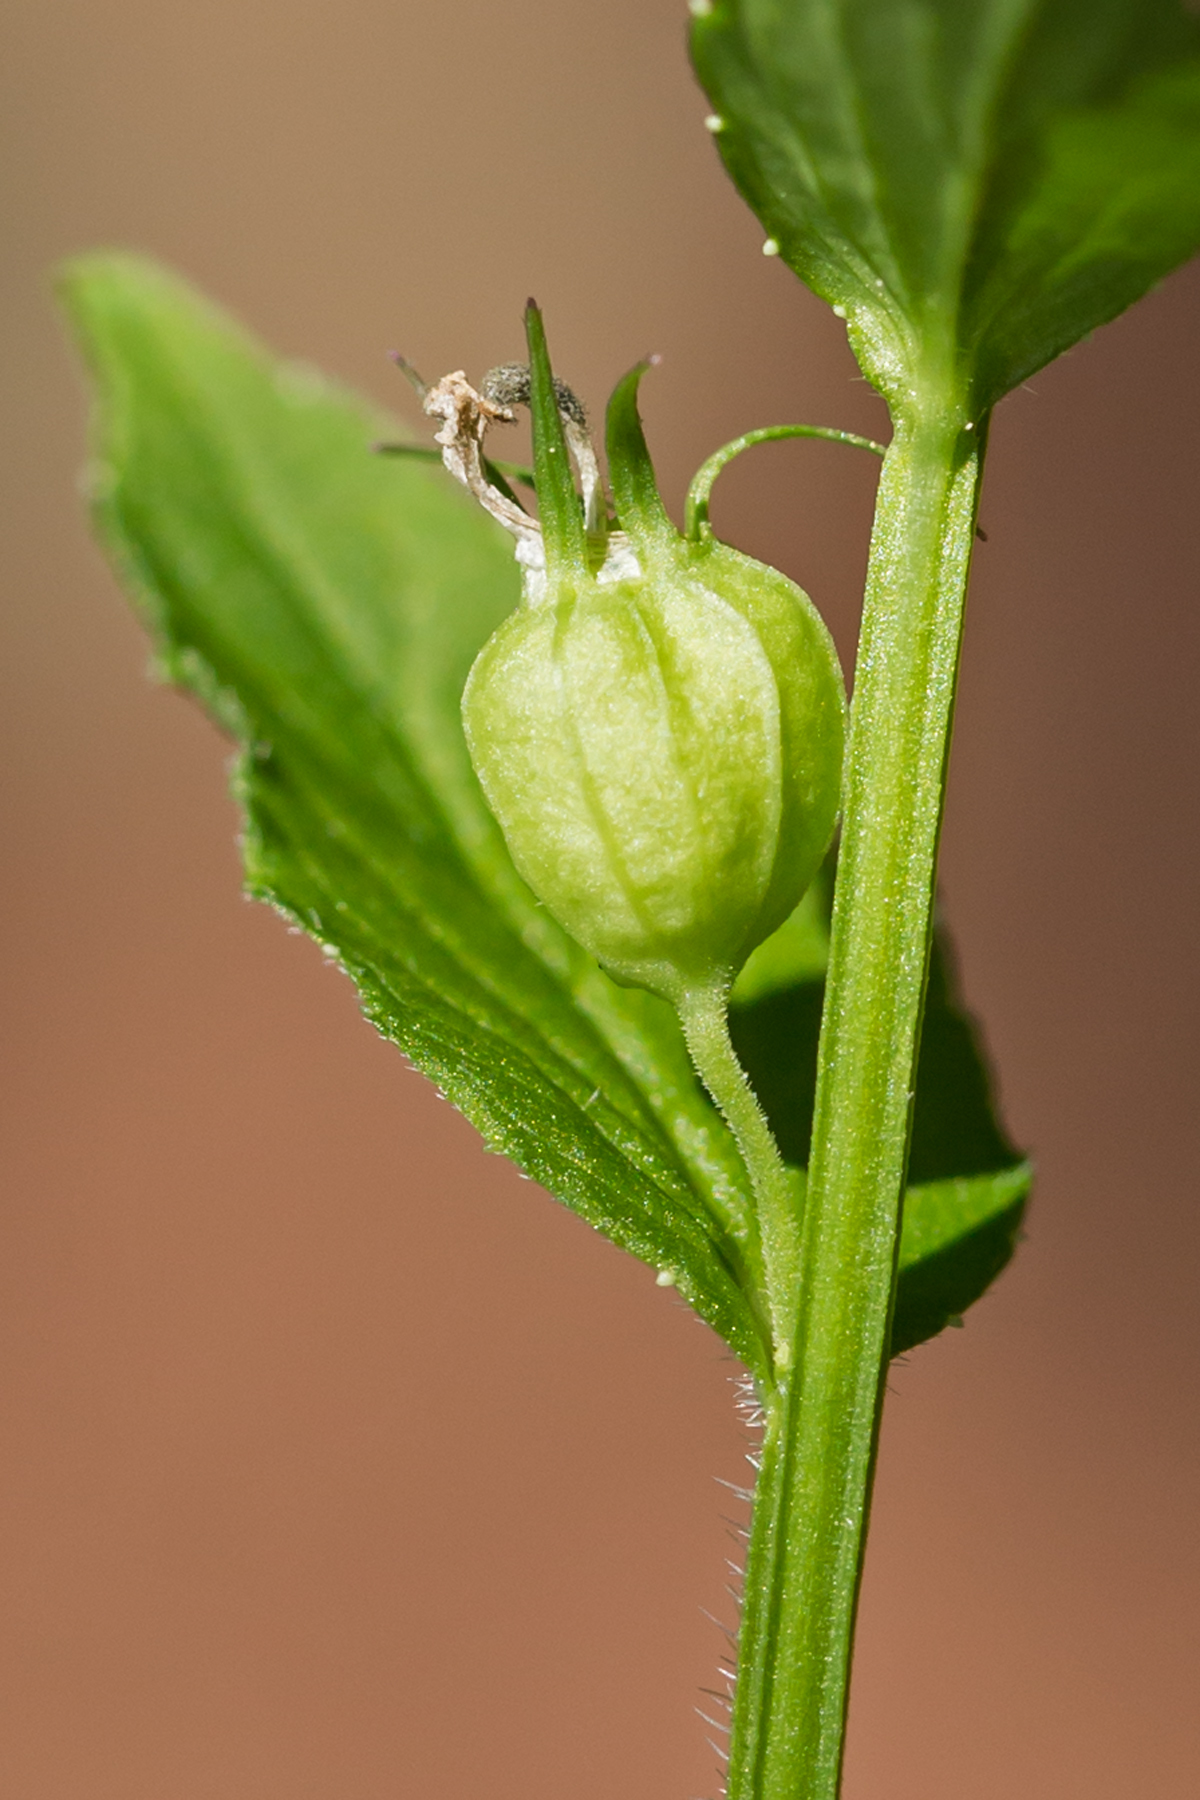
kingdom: Plantae
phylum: Tracheophyta
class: Magnoliopsida
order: Asterales
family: Campanulaceae
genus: Lobelia
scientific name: Lobelia inflata
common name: Indian tobacco
